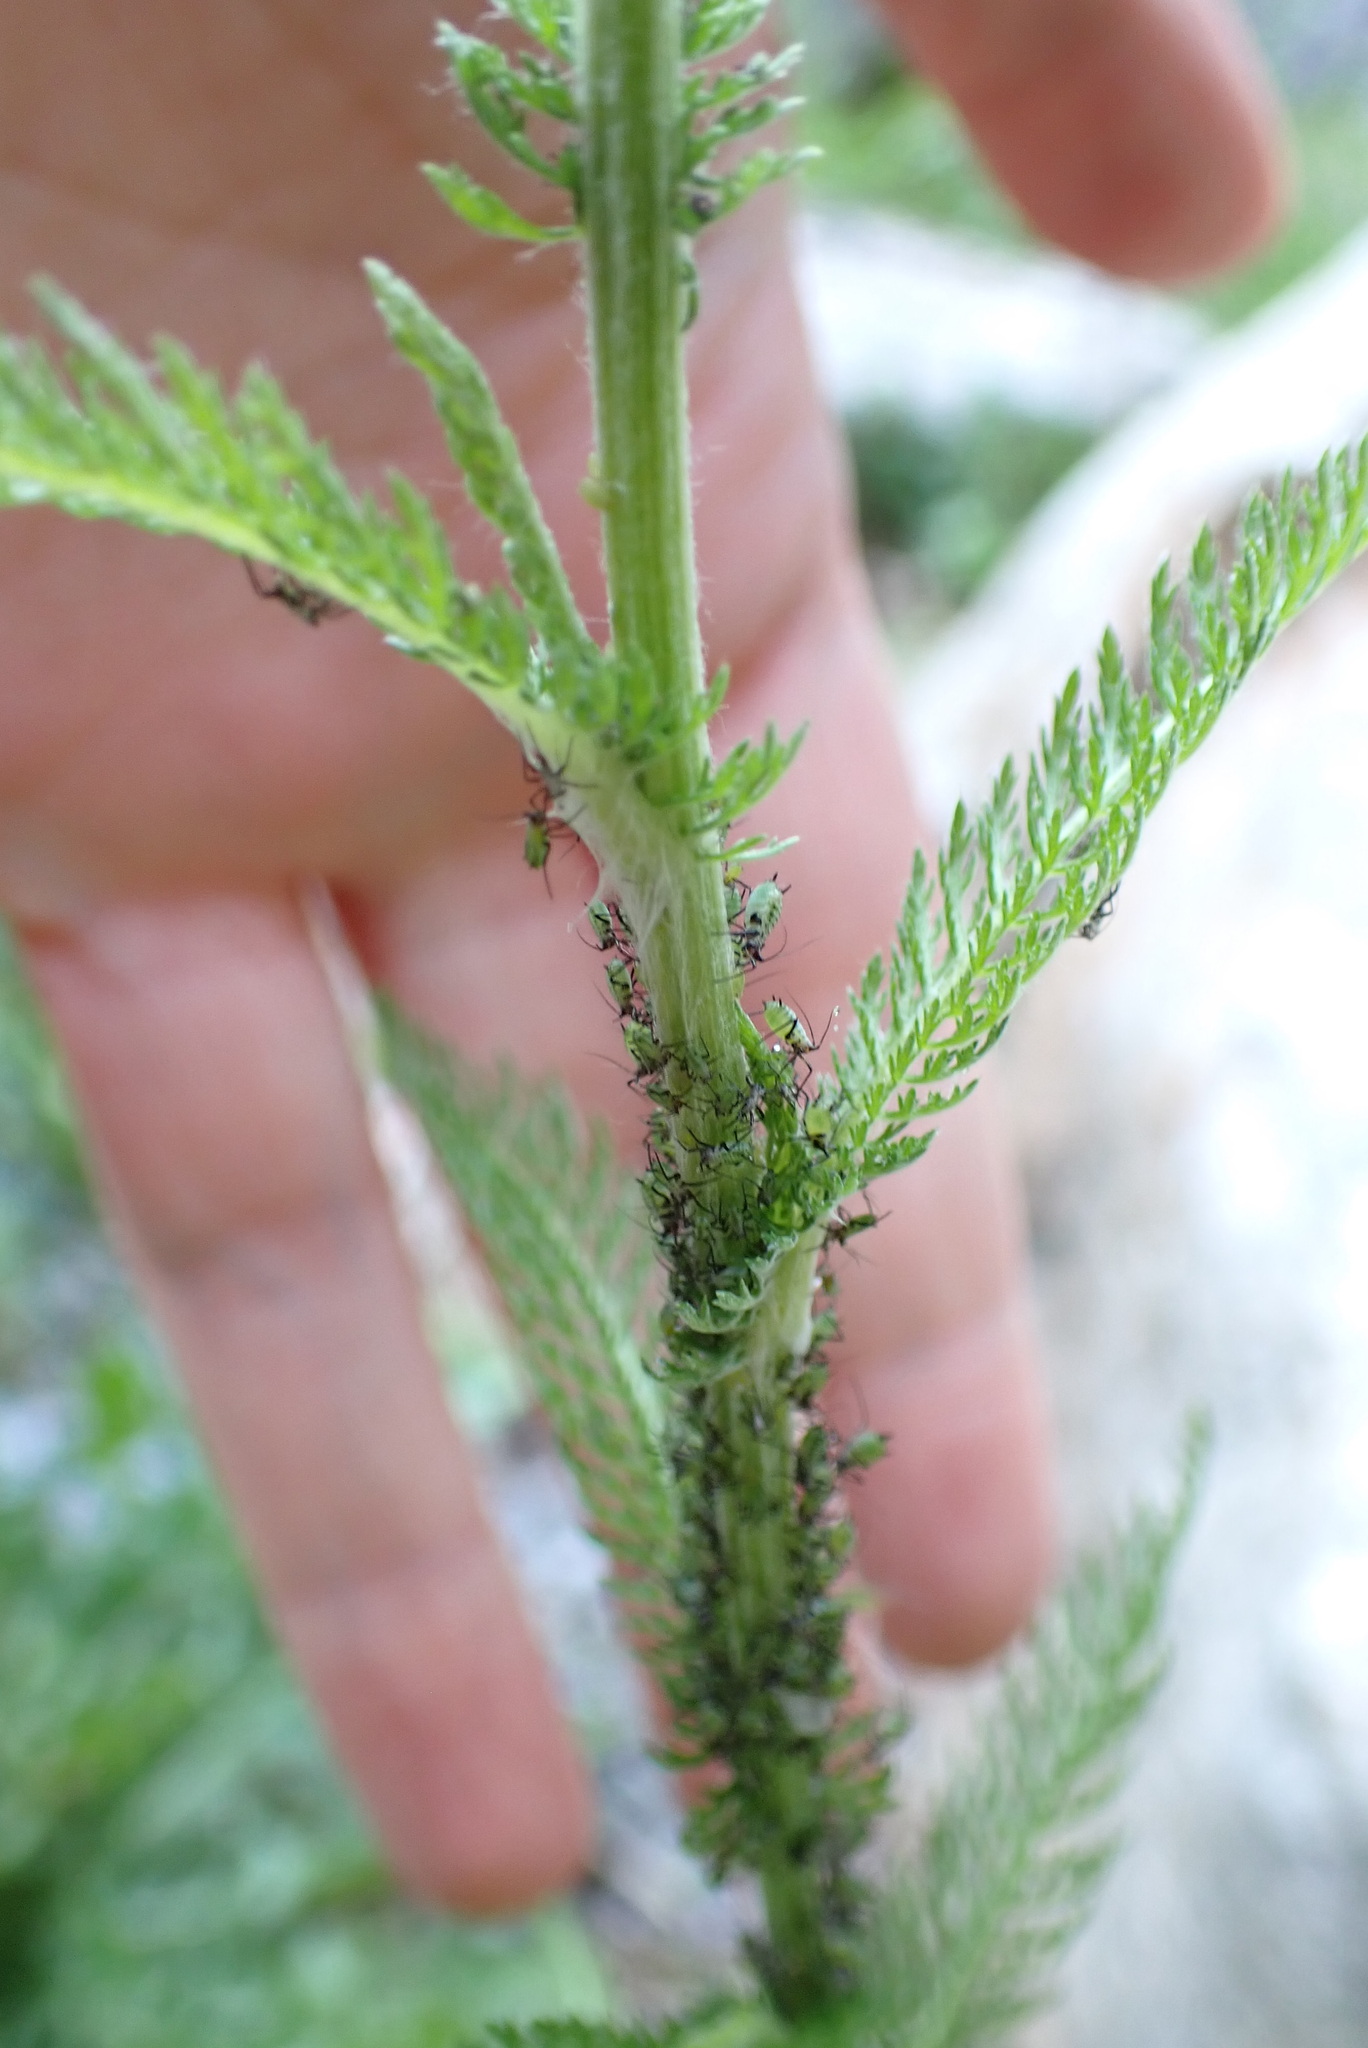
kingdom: Plantae
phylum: Tracheophyta
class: Magnoliopsida
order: Asterales
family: Asteraceae
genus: Achillea
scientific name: Achillea millefolium
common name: Yarrow
